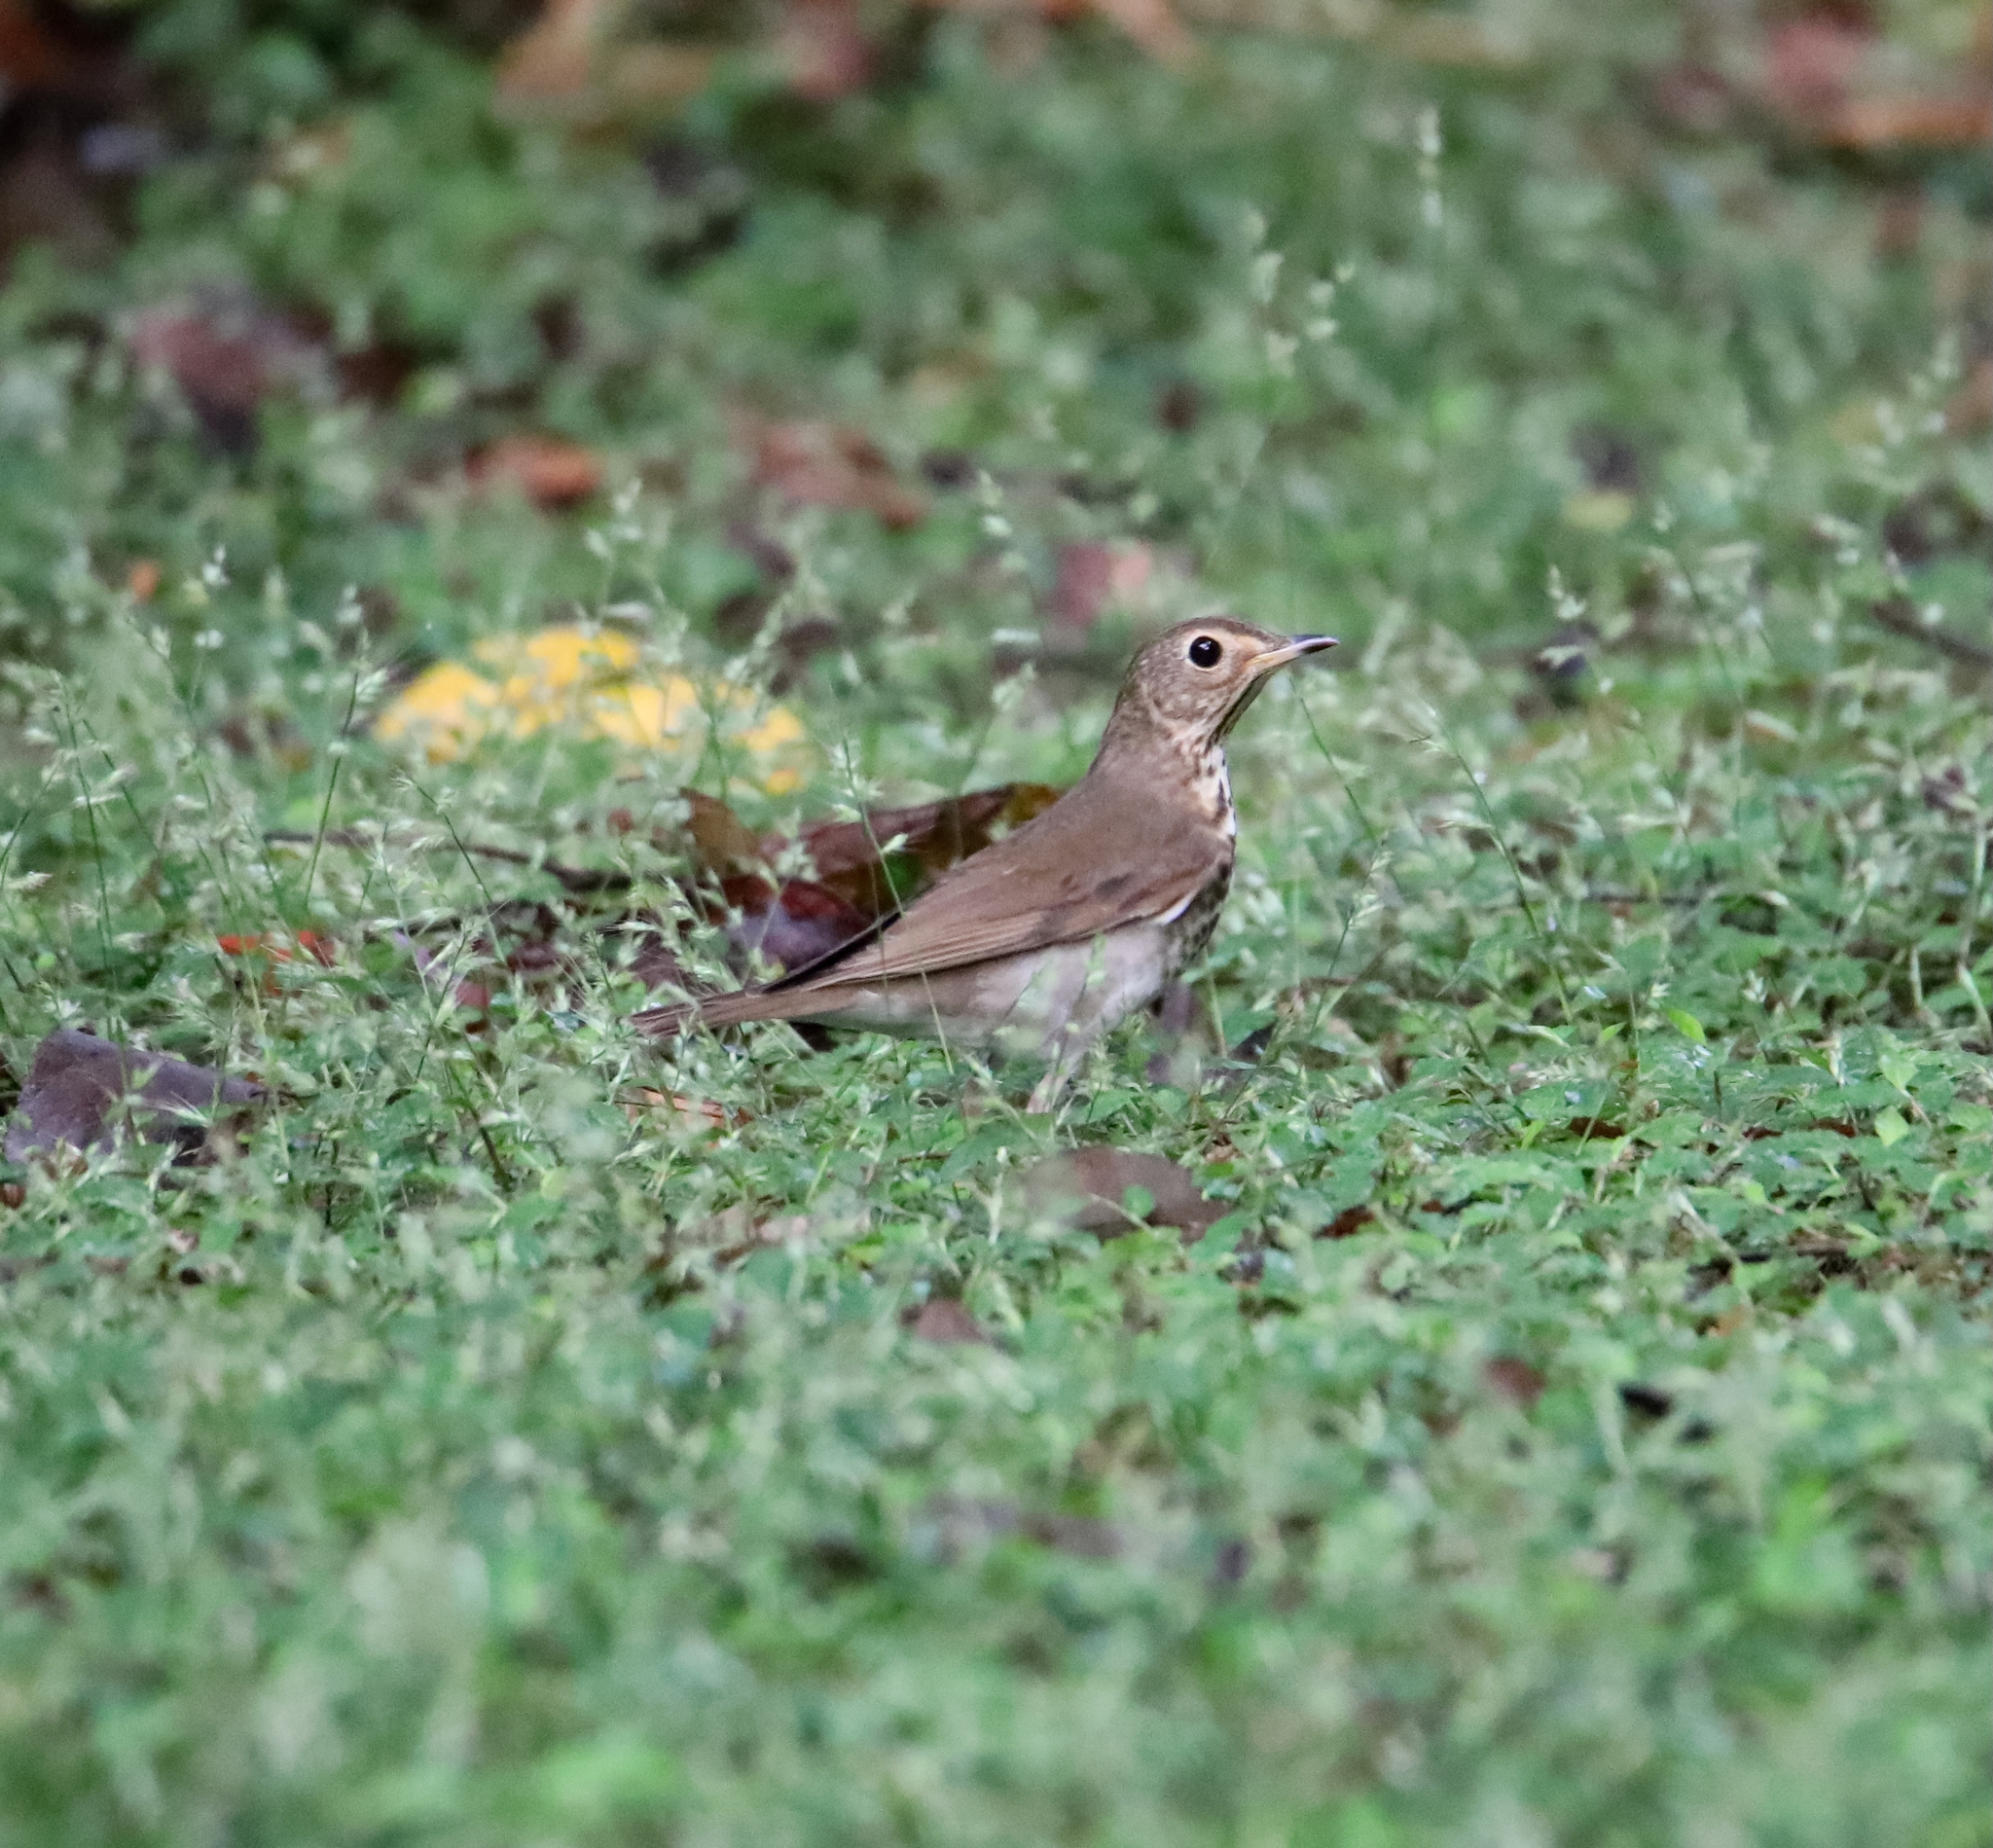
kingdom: Animalia
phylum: Chordata
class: Aves
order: Passeriformes
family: Turdidae
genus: Catharus
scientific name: Catharus ustulatus
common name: Swainson's thrush
